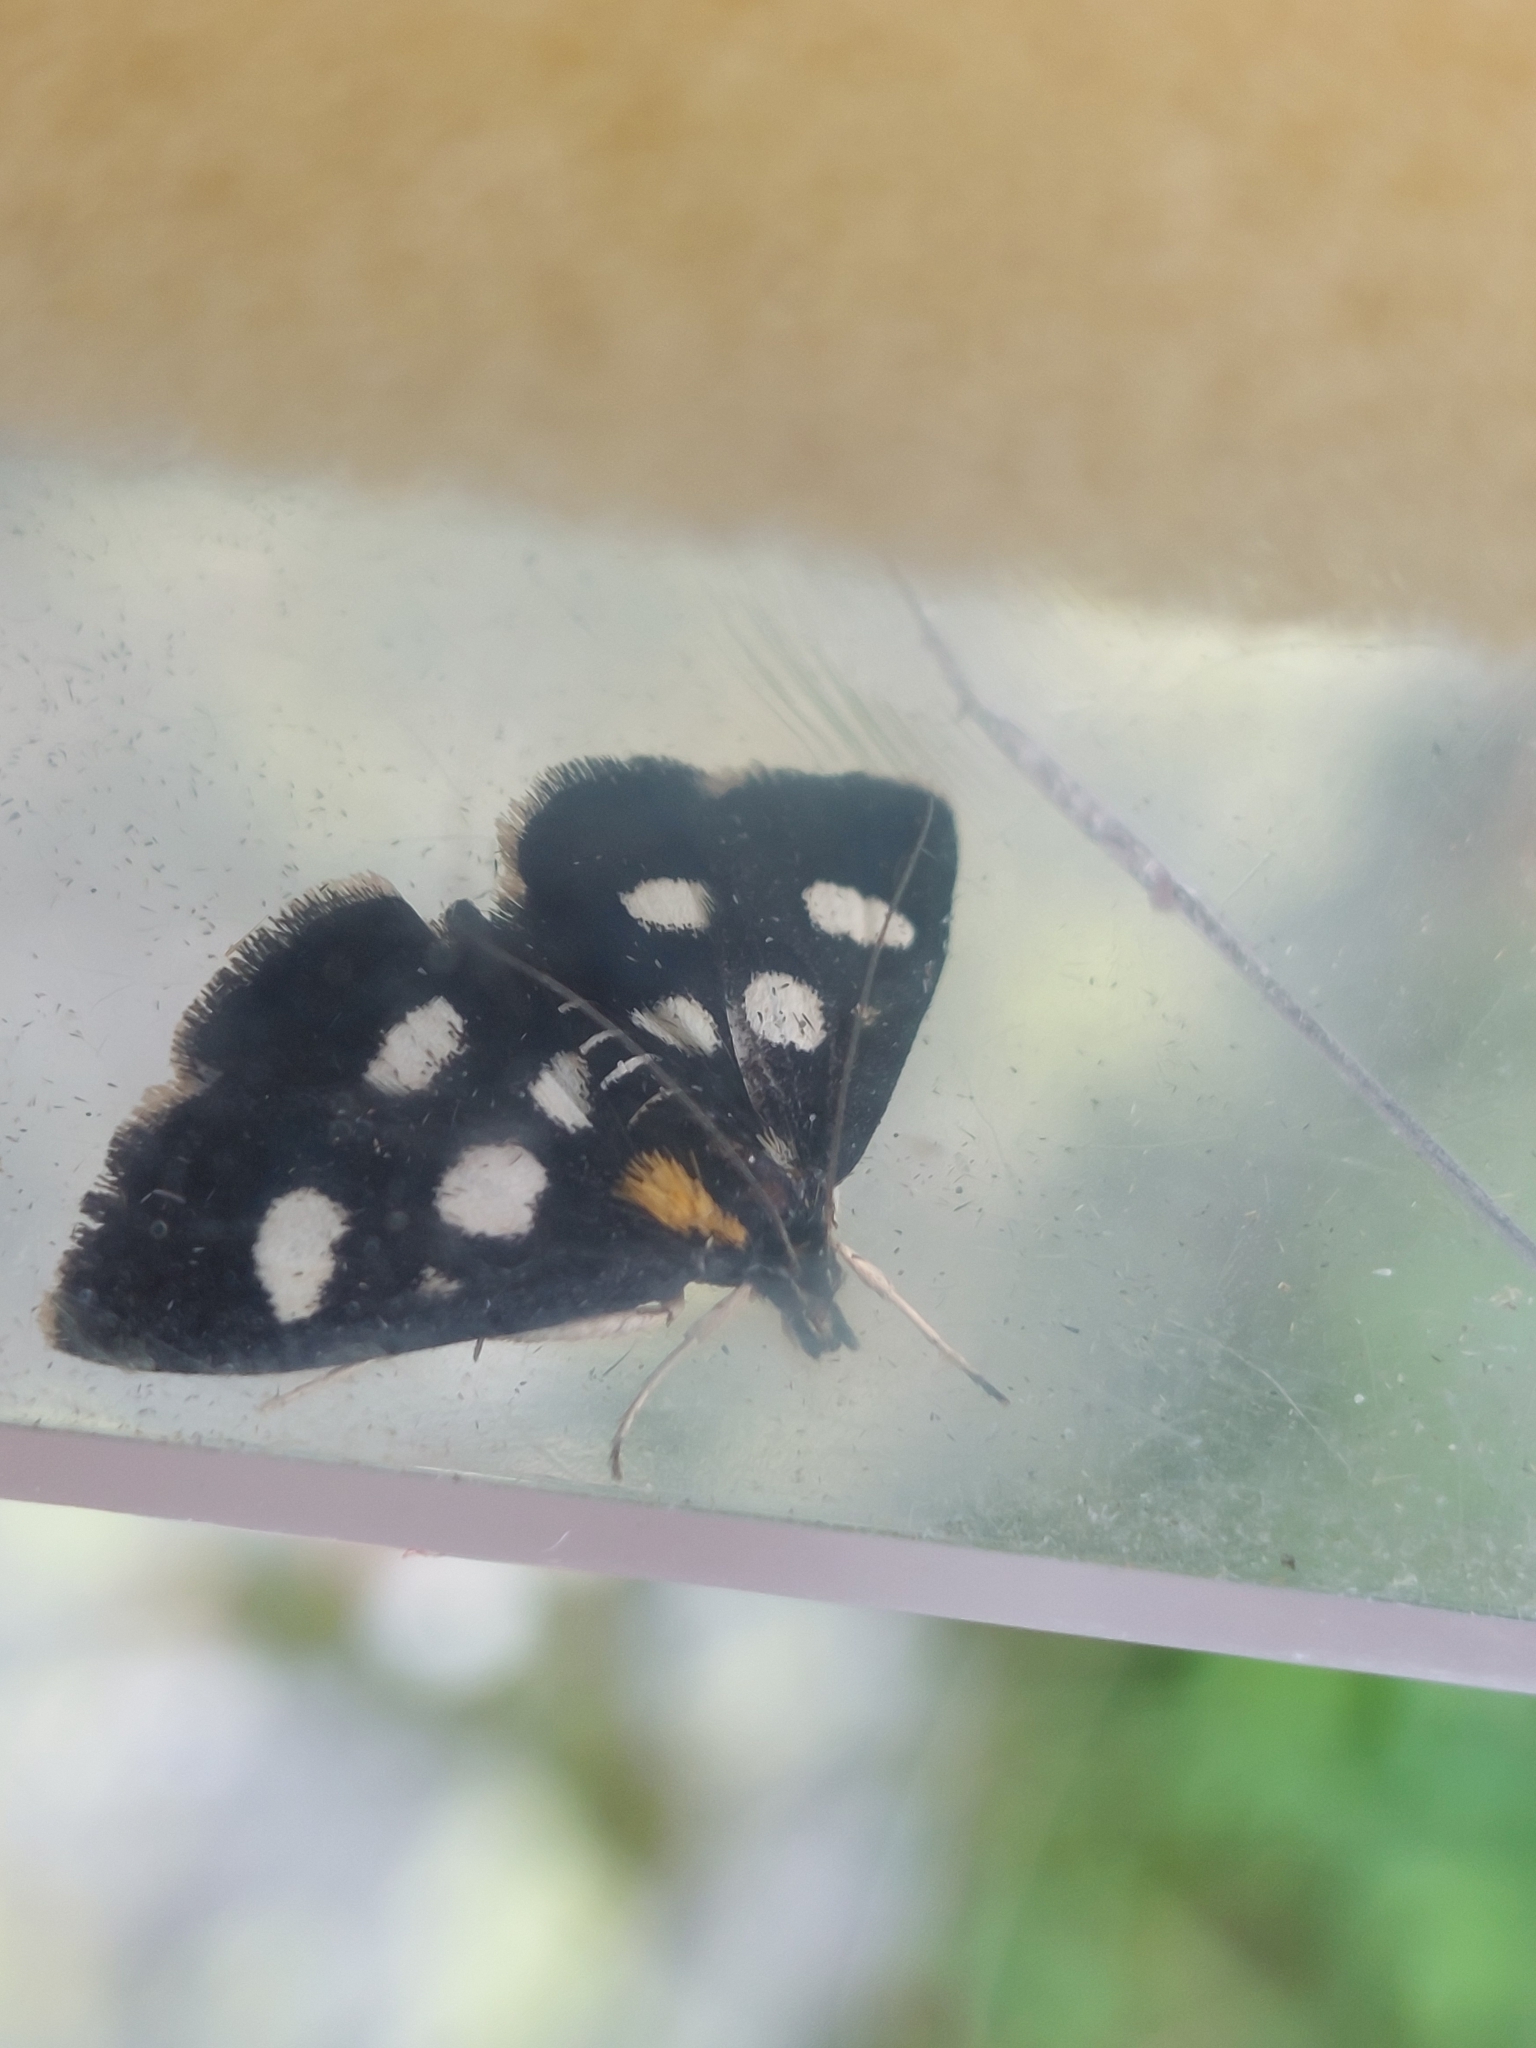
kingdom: Animalia
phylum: Arthropoda
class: Insecta
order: Lepidoptera
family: Crambidae
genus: Anania
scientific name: Anania funebris
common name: White-spotted sable moth
